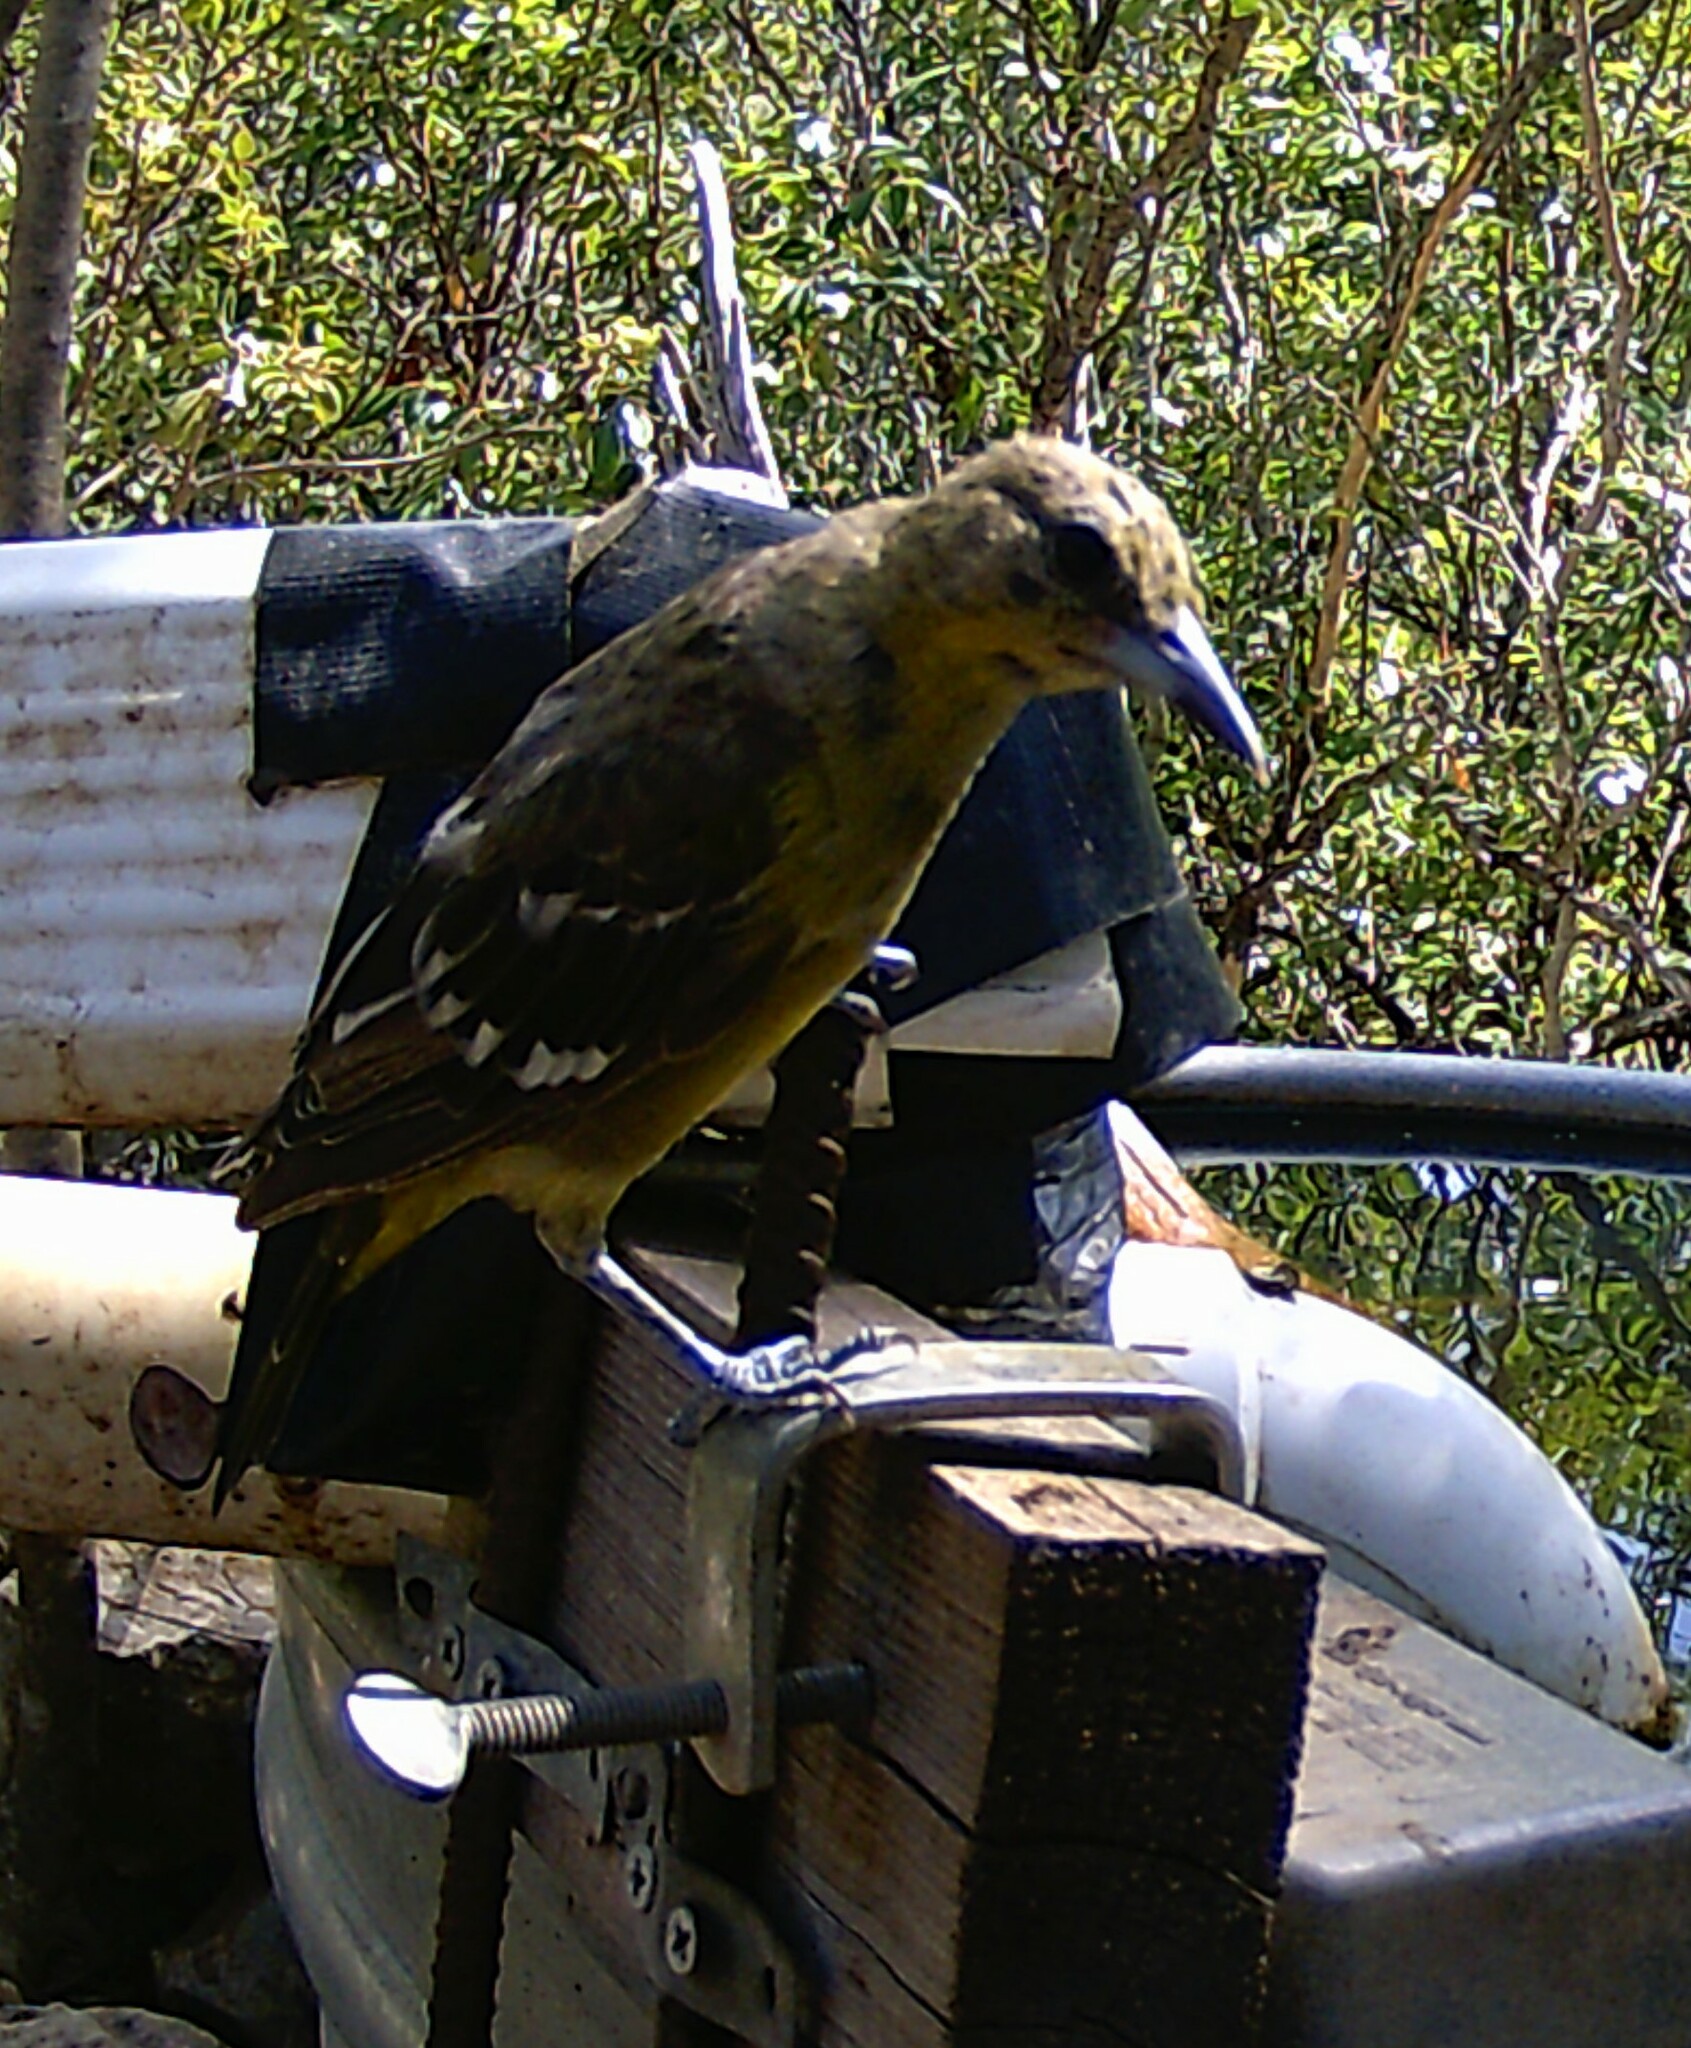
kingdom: Animalia
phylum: Chordata
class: Aves
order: Passeriformes
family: Icteridae
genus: Icterus
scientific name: Icterus parisorum
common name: Scott's oriole
